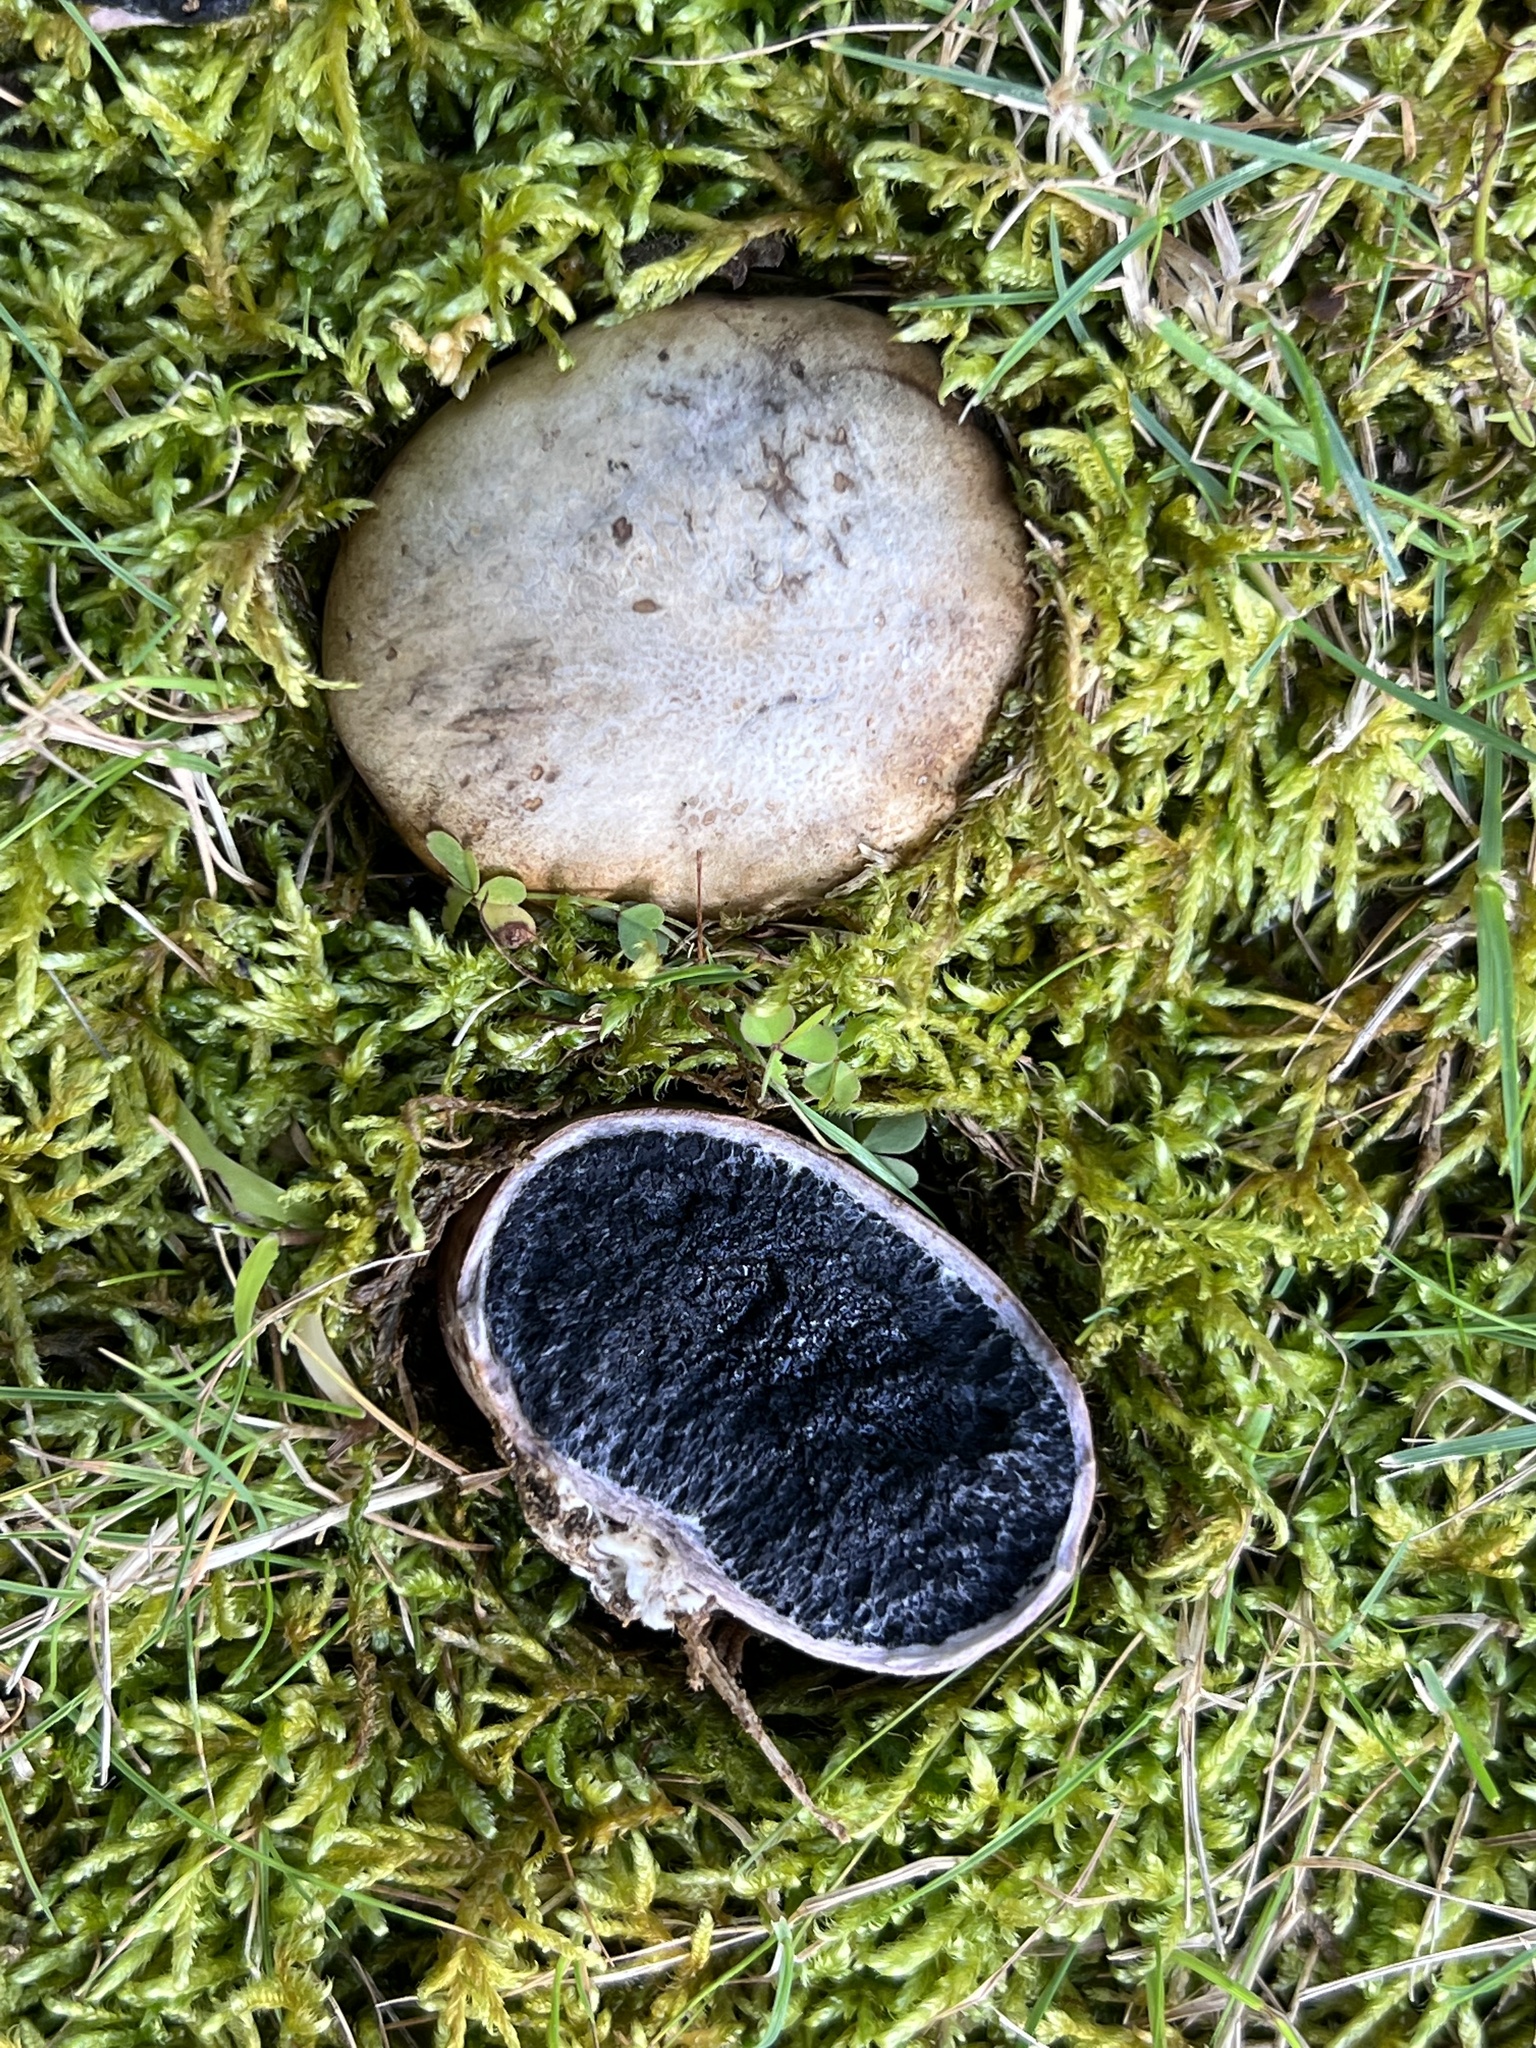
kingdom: Fungi
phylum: Basidiomycota
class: Agaricomycetes
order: Boletales
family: Sclerodermataceae
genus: Scleroderma
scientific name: Scleroderma cepa
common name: Onion earthball
